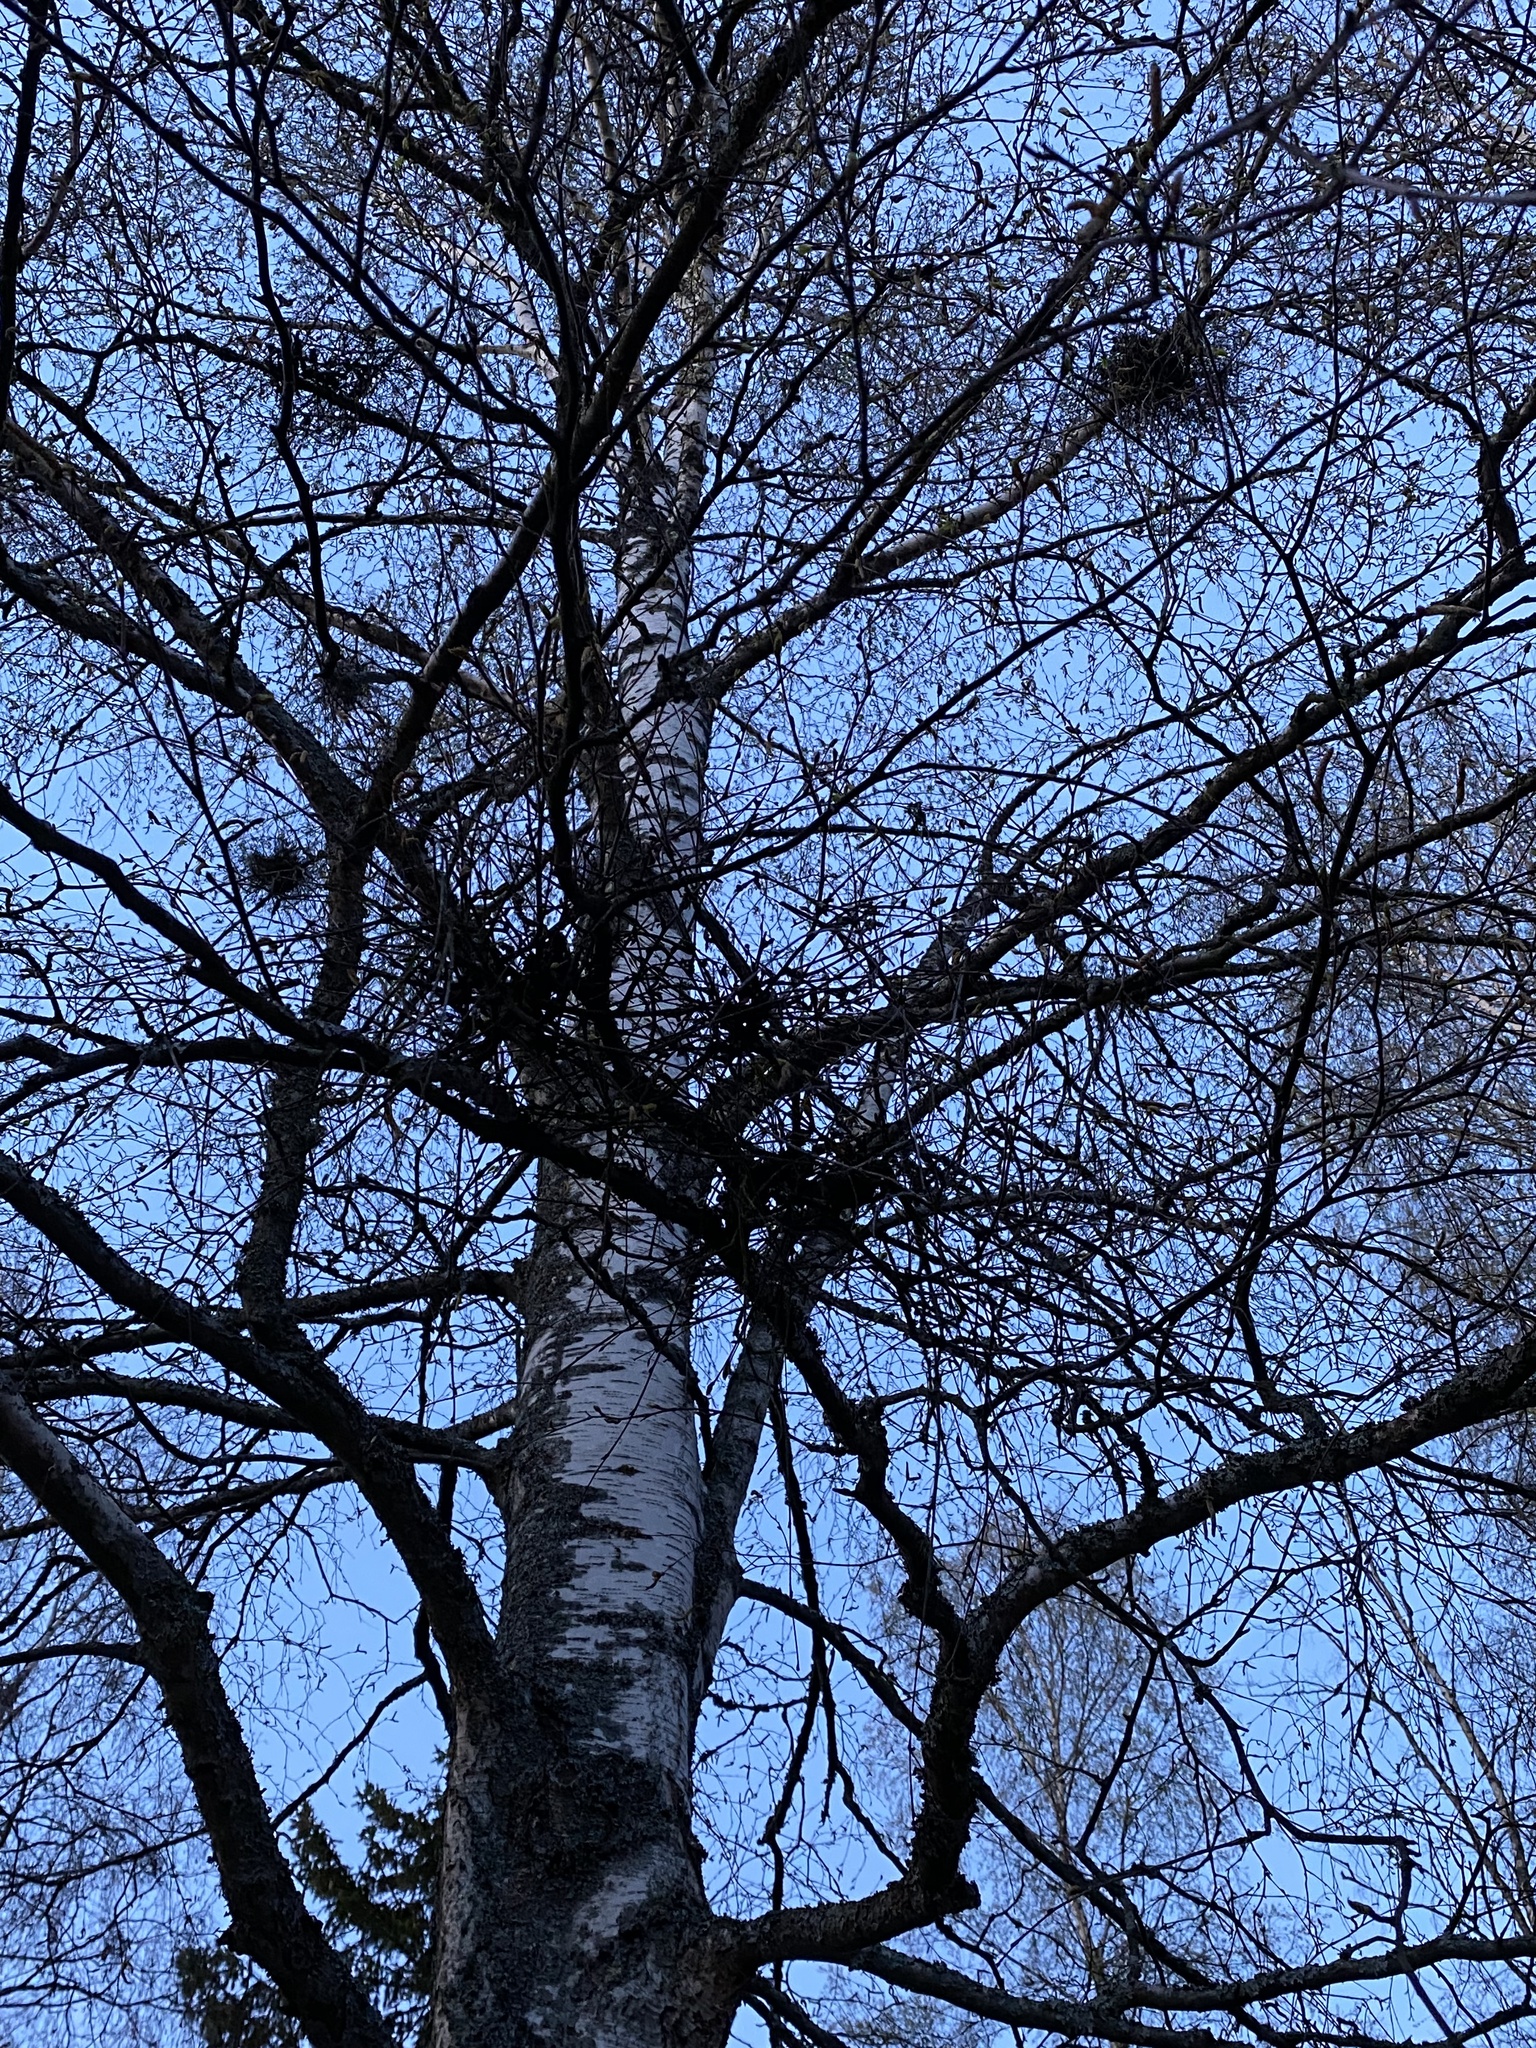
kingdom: Fungi
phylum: Ascomycota
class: Taphrinomycetes
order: Taphrinales
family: Taphrinaceae
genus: Taphrina
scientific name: Taphrina betulina
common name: Birch besom
